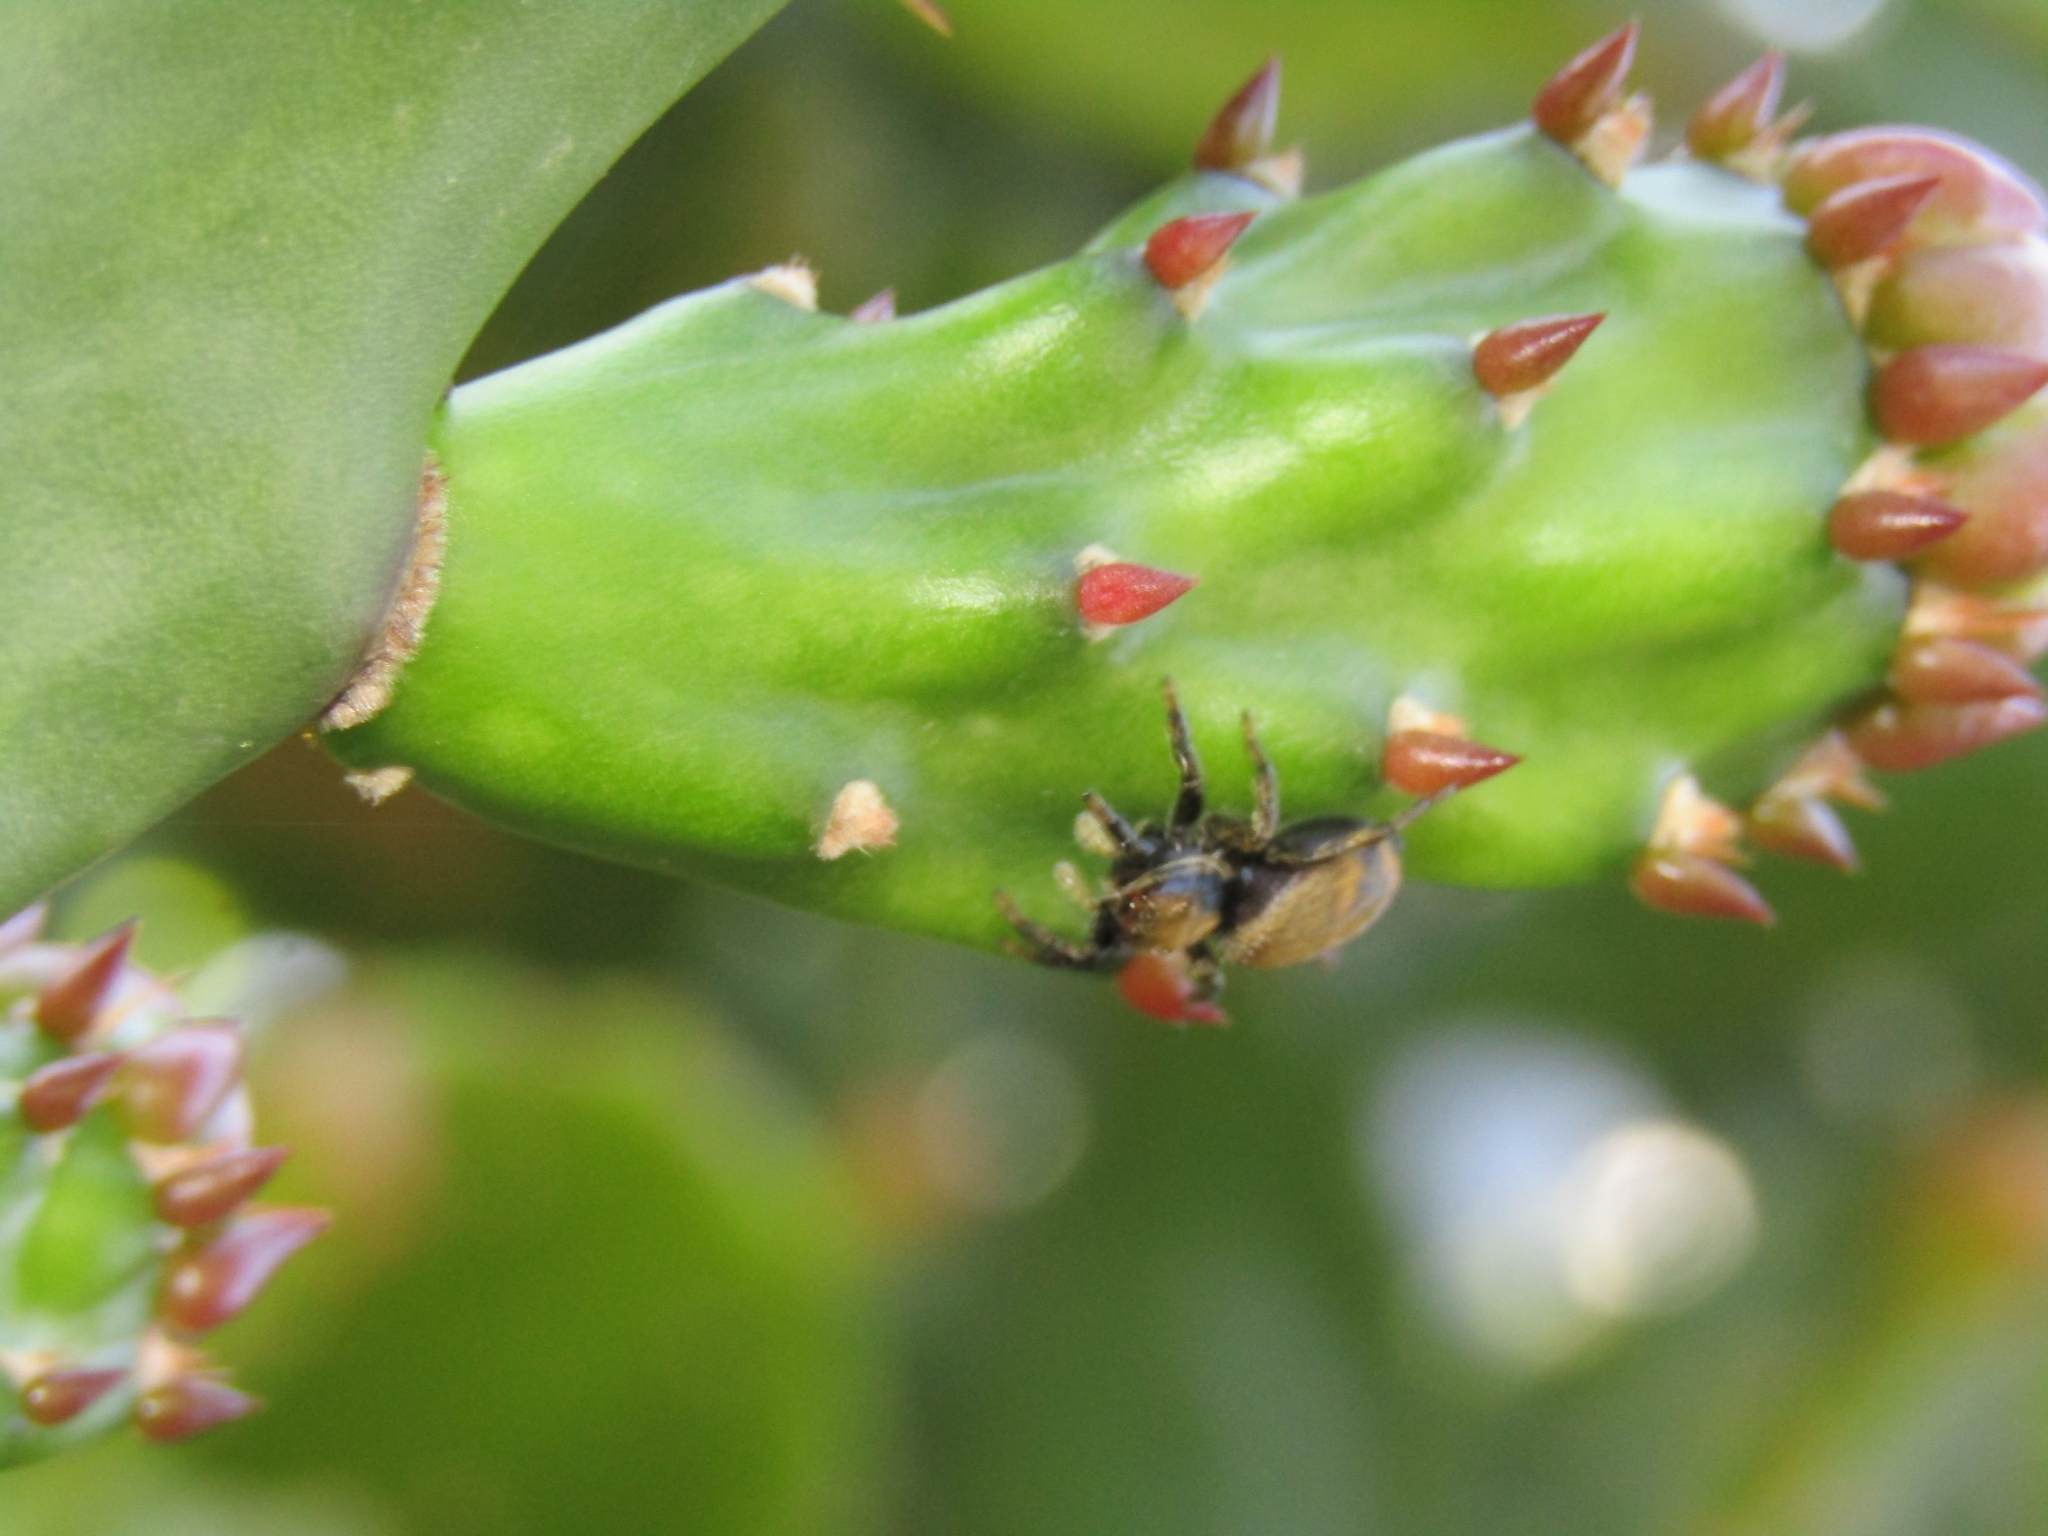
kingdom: Animalia
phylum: Arthropoda
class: Arachnida
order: Araneae
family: Salticidae
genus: Phiale
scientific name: Phiale roburifoliata
